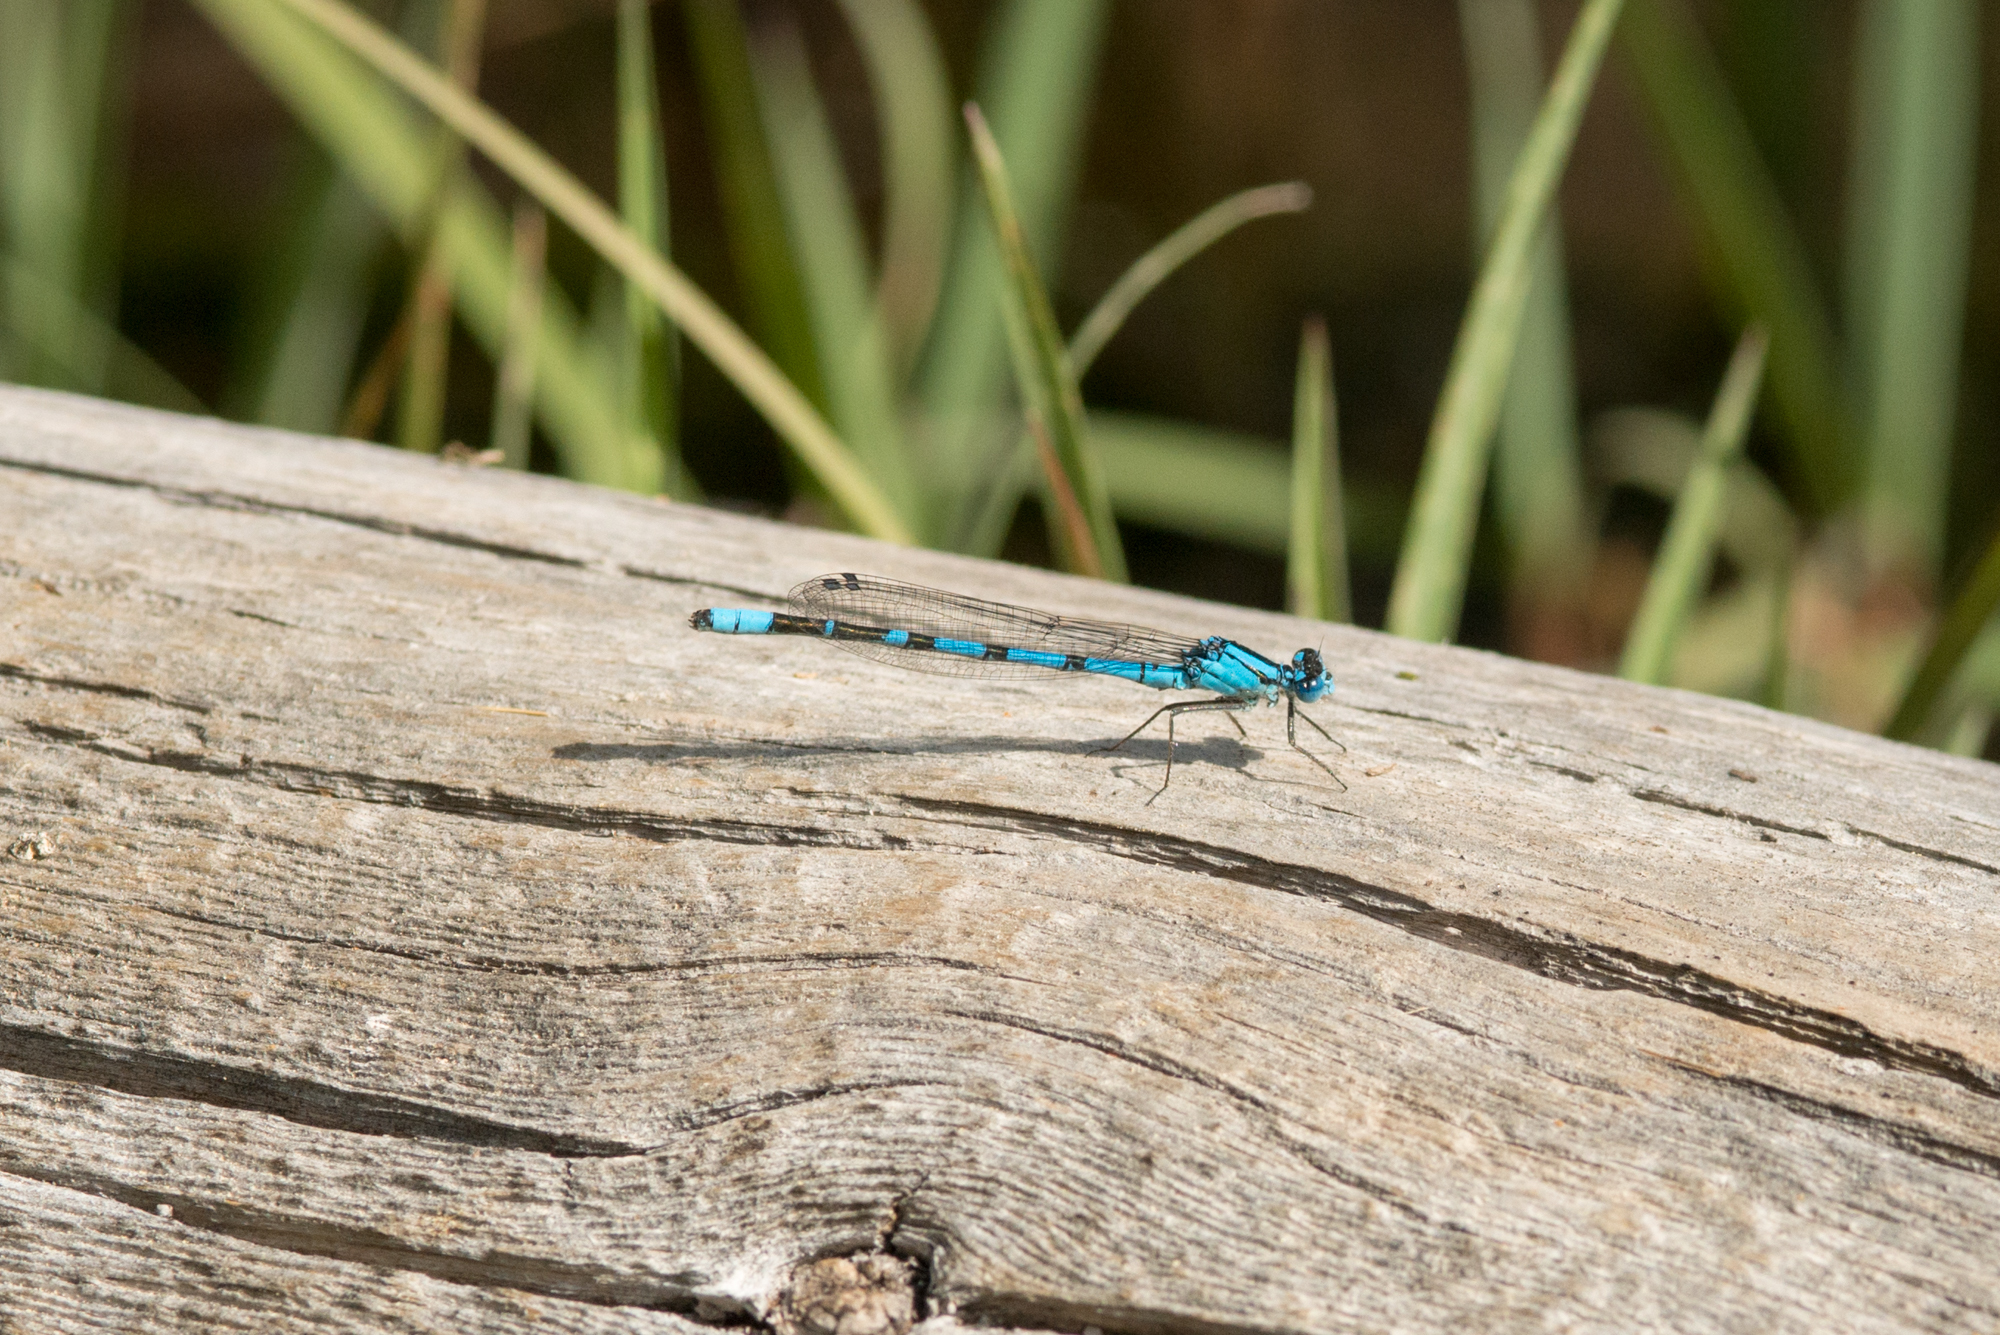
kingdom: Animalia
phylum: Arthropoda
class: Insecta
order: Odonata
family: Coenagrionidae
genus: Enallagma
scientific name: Enallagma annexum
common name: Northern bluet
